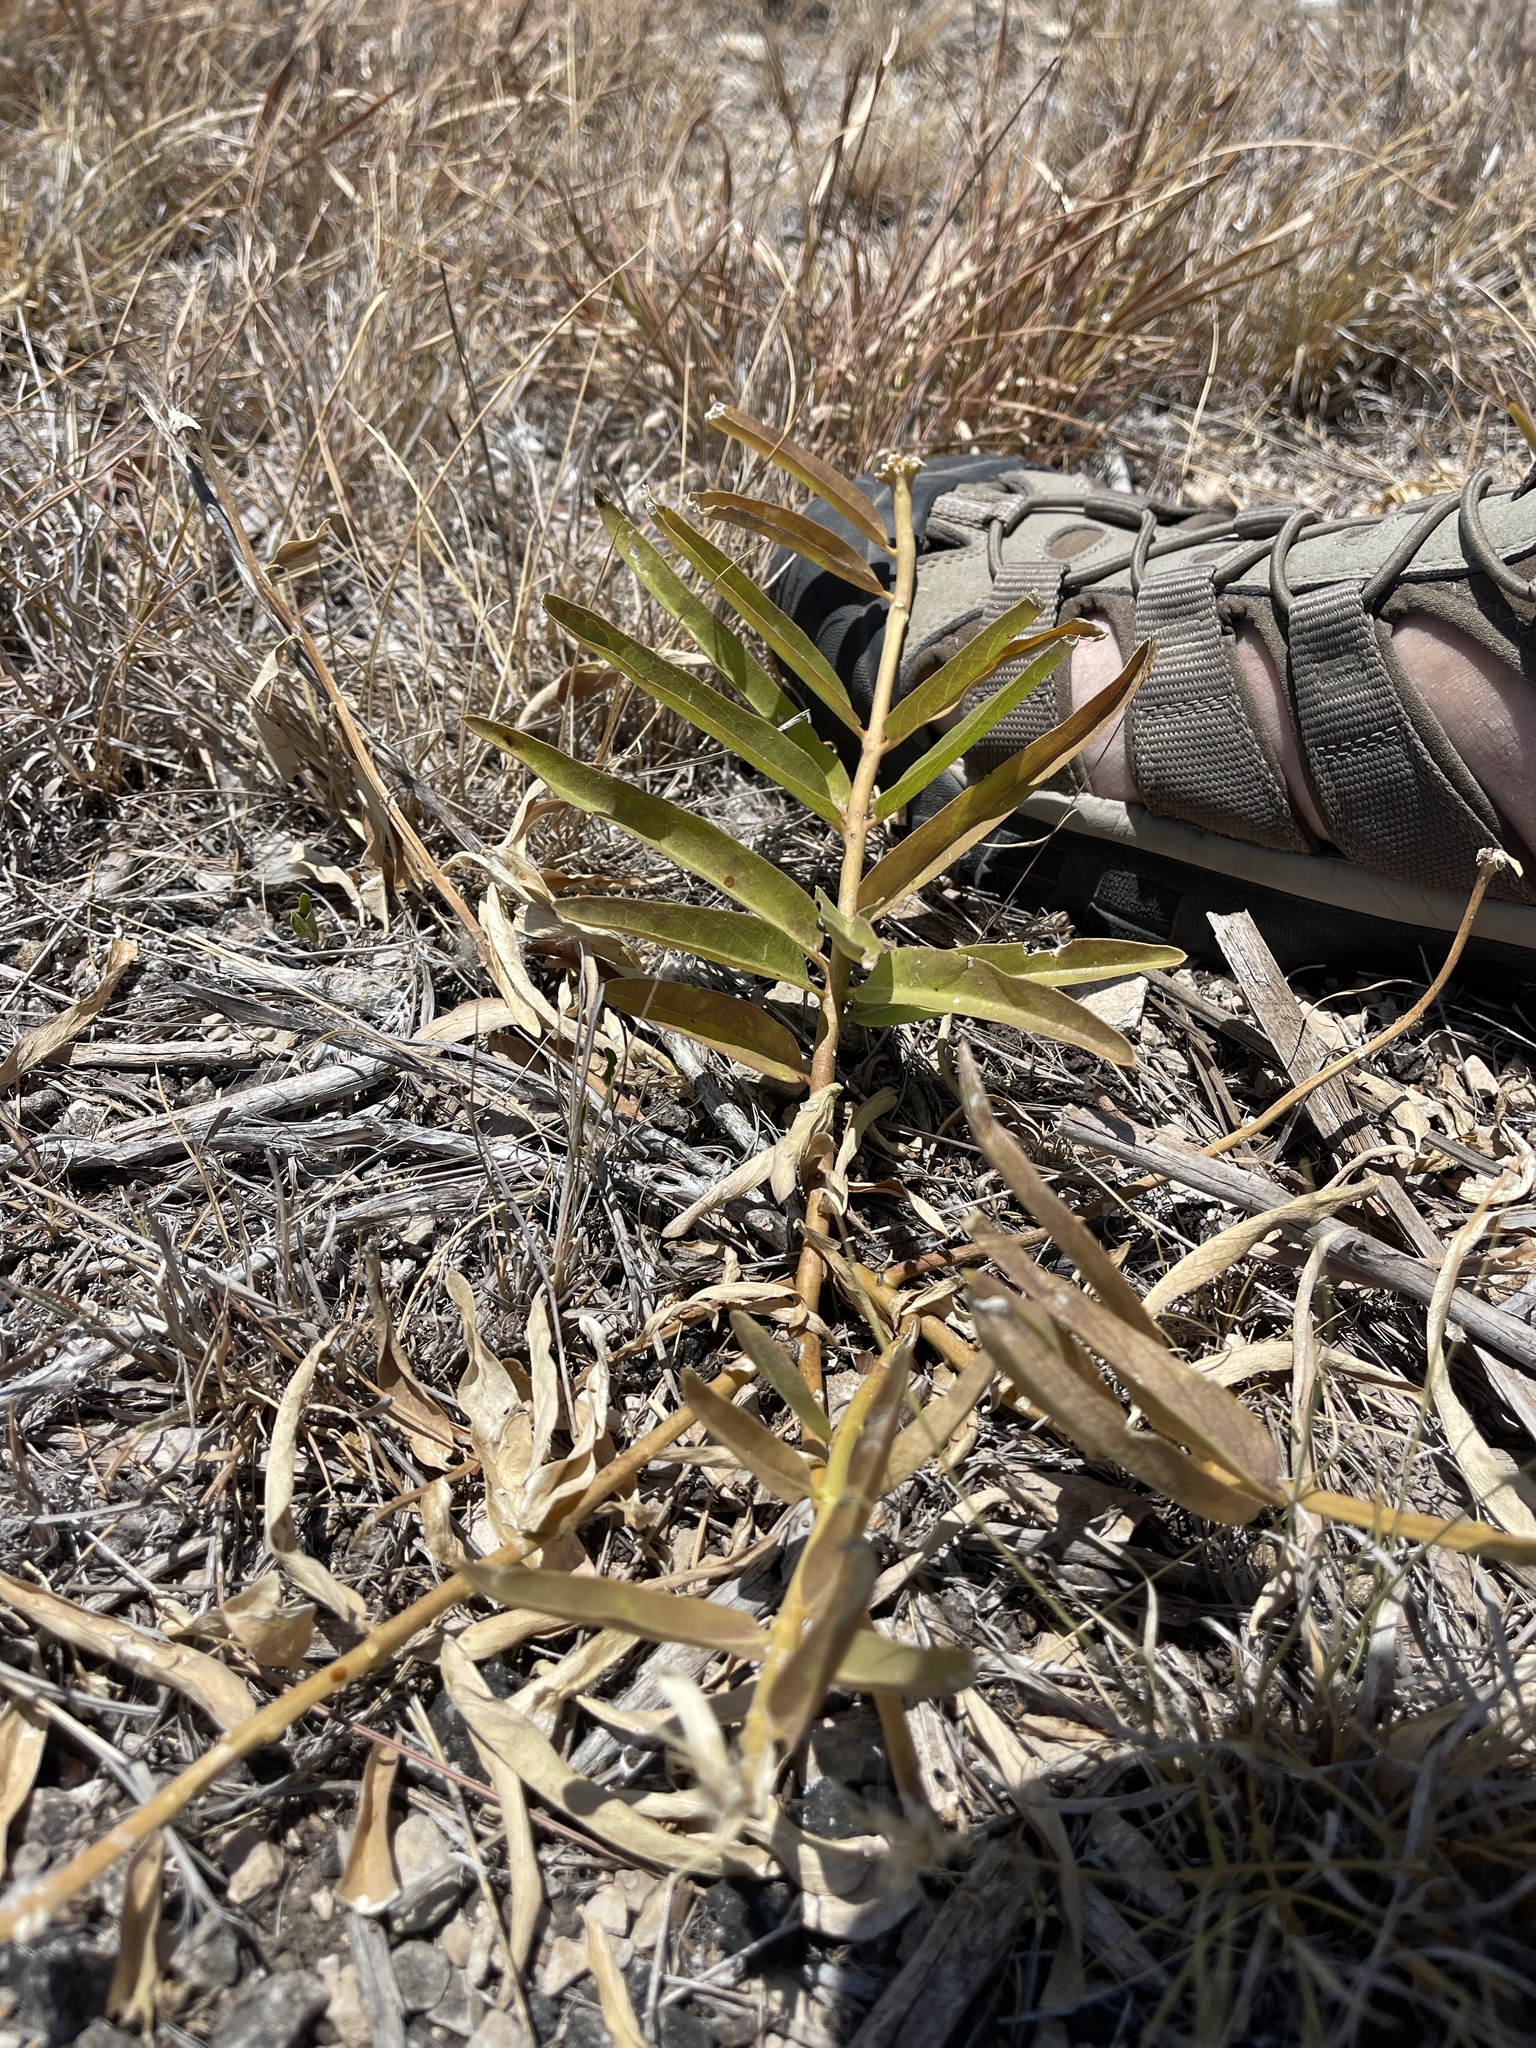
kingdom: Plantae
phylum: Tracheophyta
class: Magnoliopsida
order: Gentianales
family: Apocynaceae
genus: Asclepias
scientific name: Asclepias asperula
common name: Antelope horns
